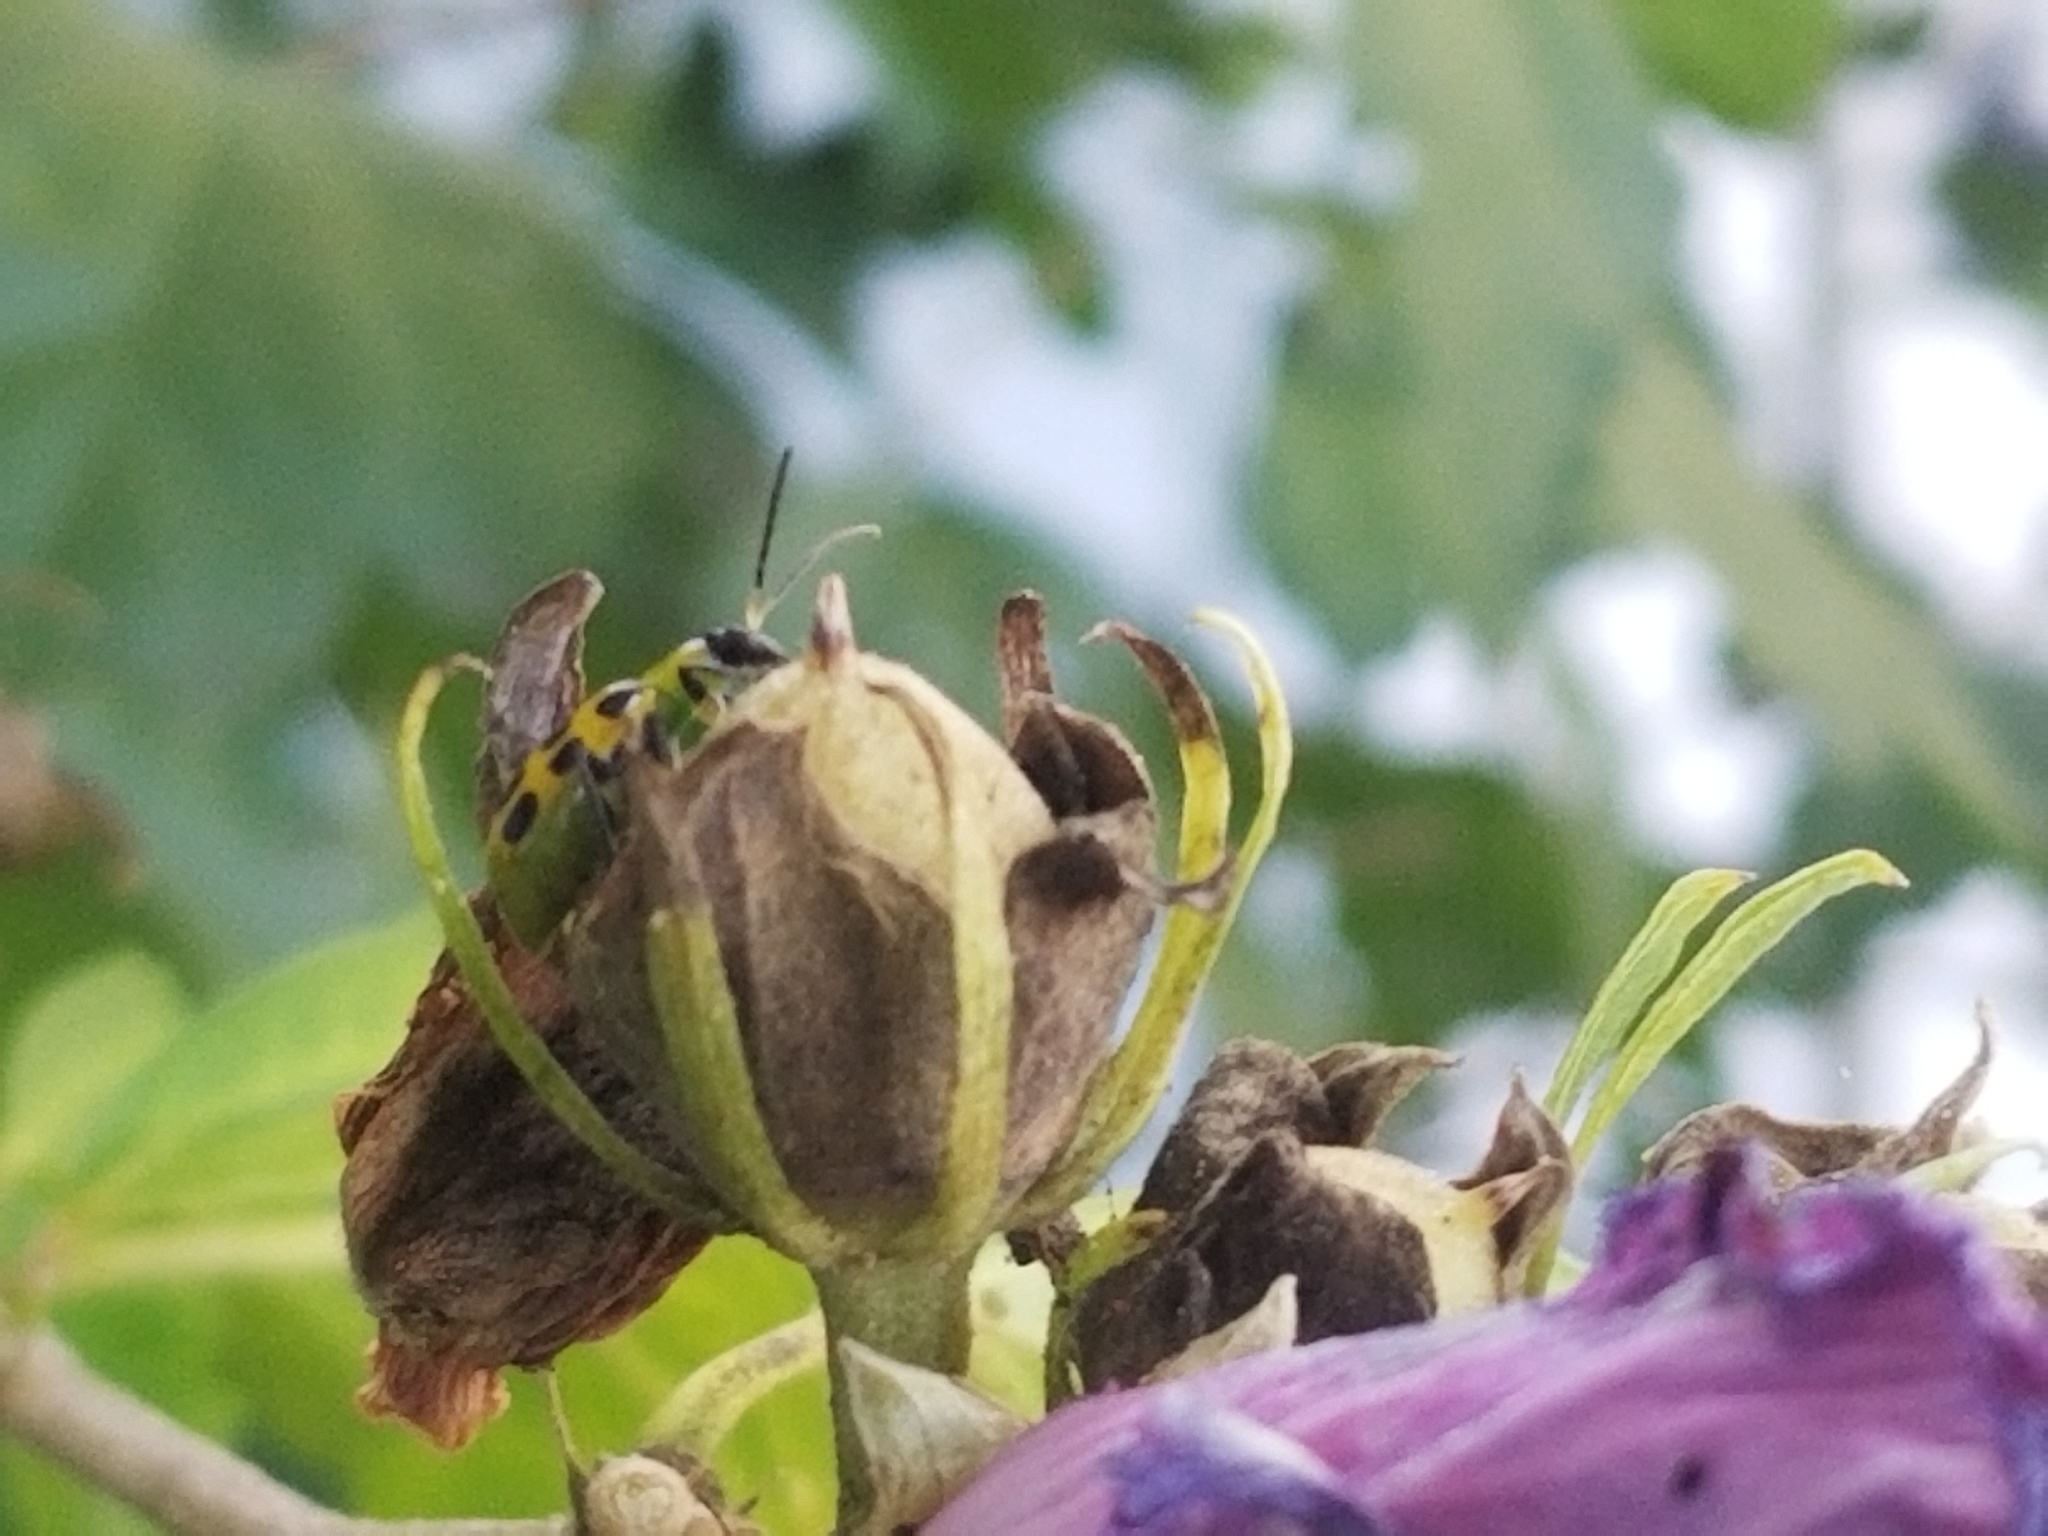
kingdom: Animalia
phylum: Arthropoda
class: Insecta
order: Coleoptera
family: Chrysomelidae
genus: Diabrotica
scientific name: Diabrotica undecimpunctata
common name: Spotted cucumber beetle
